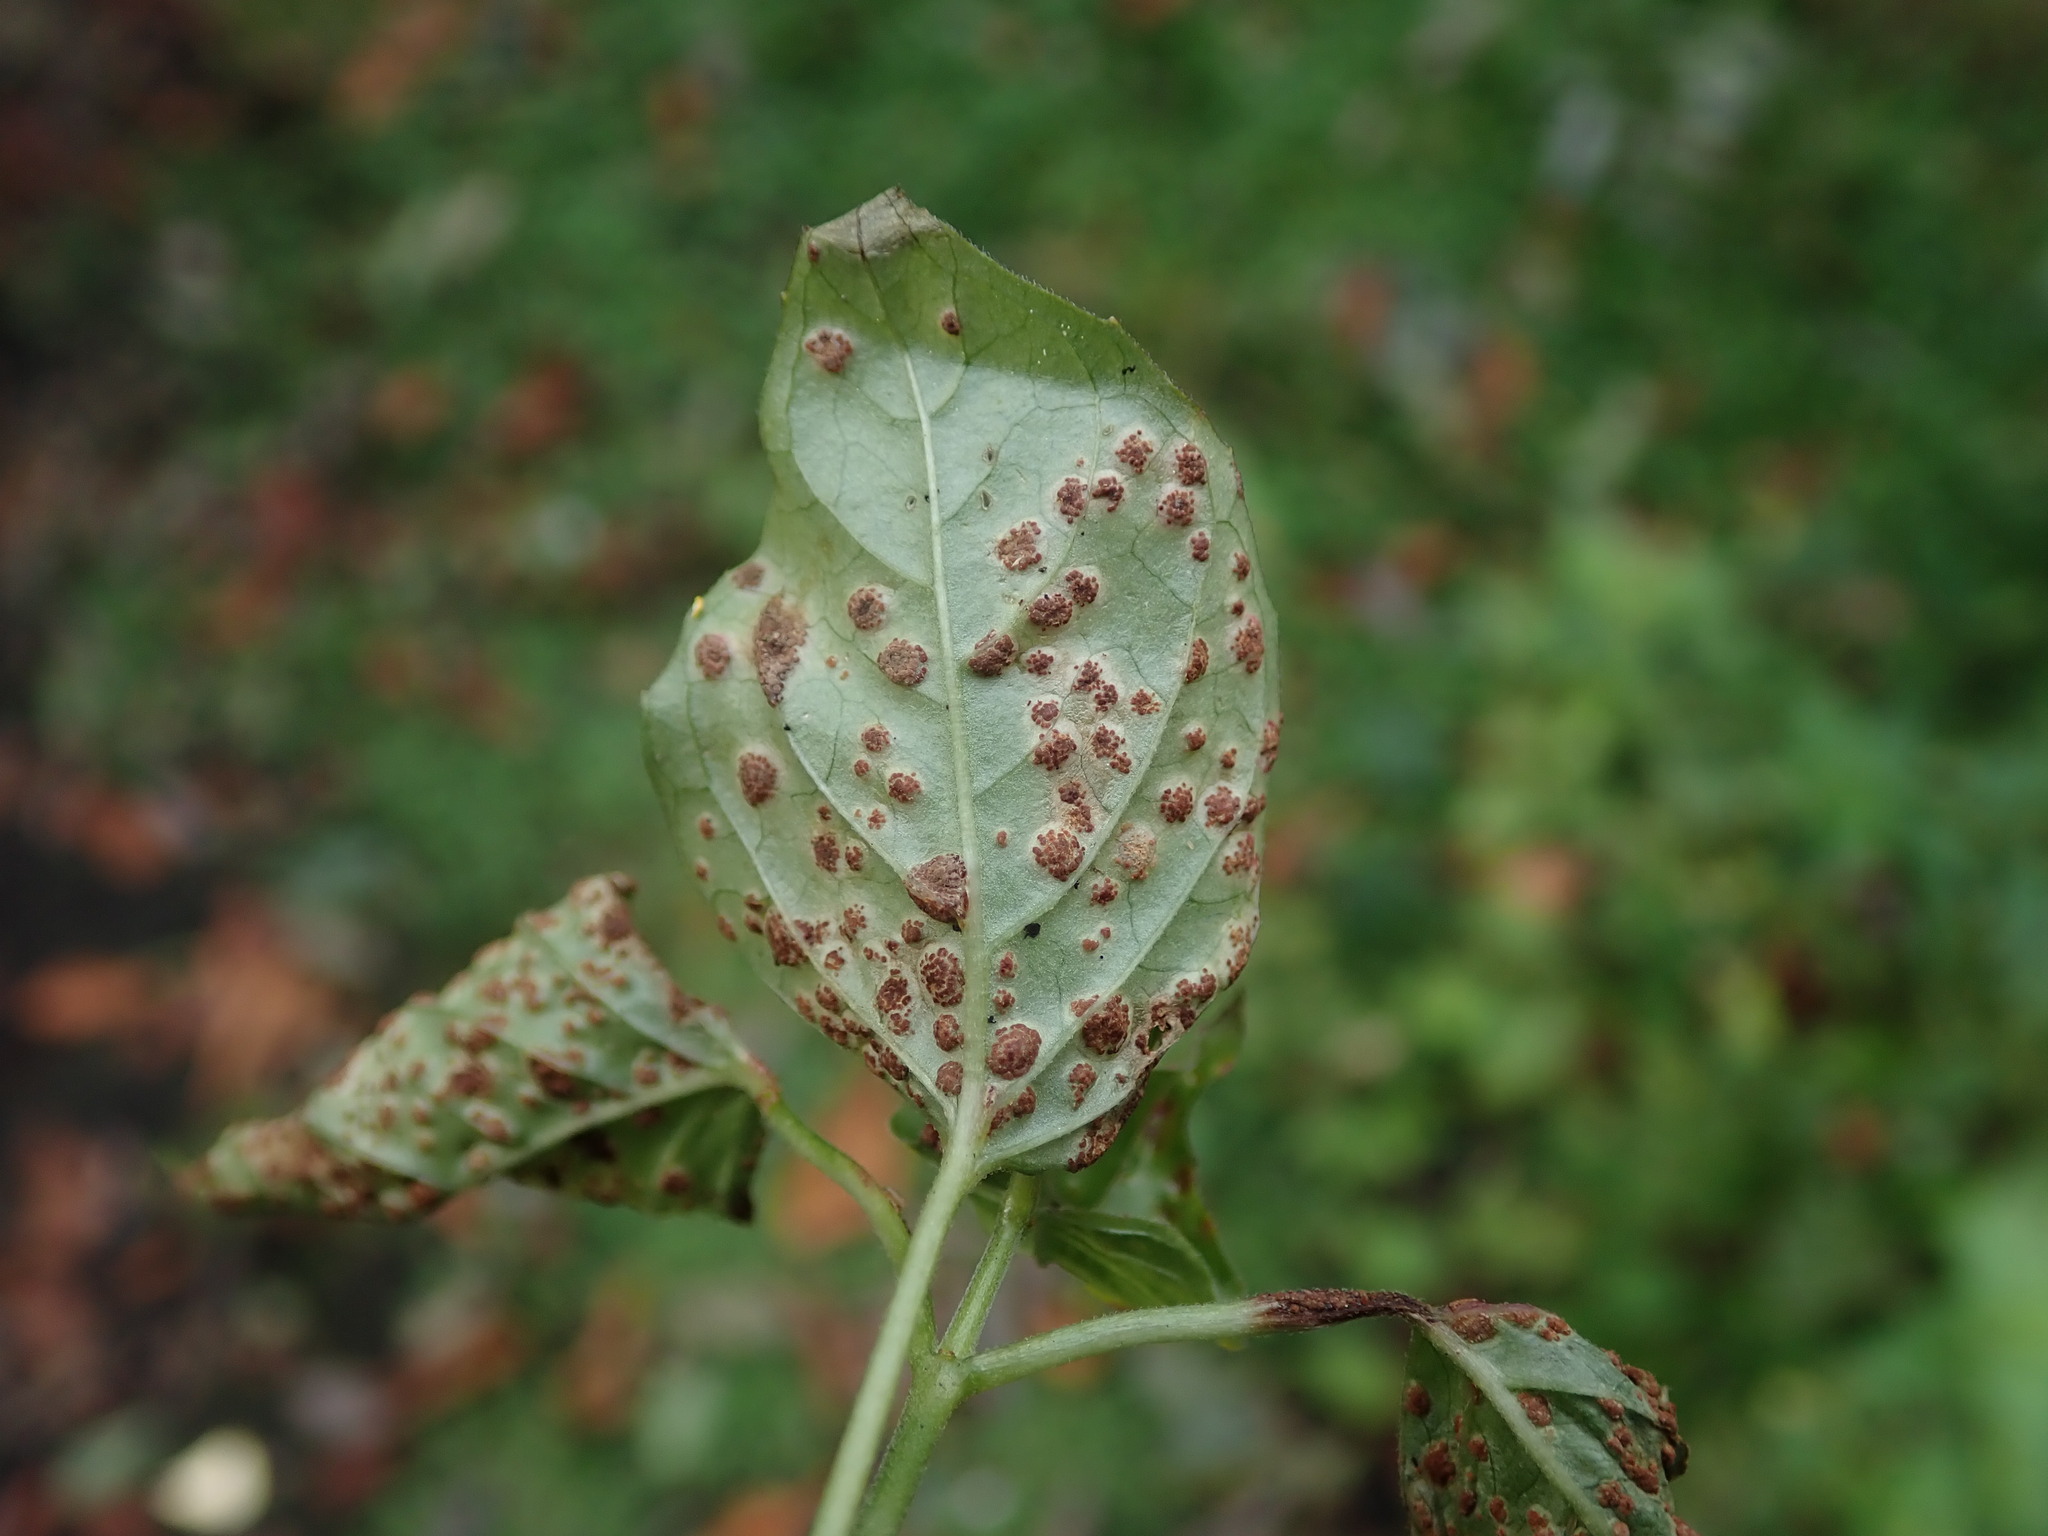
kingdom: Fungi
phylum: Basidiomycota
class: Pucciniomycetes
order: Pucciniales
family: Pucciniaceae
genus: Puccinia
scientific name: Puccinia circaeae
